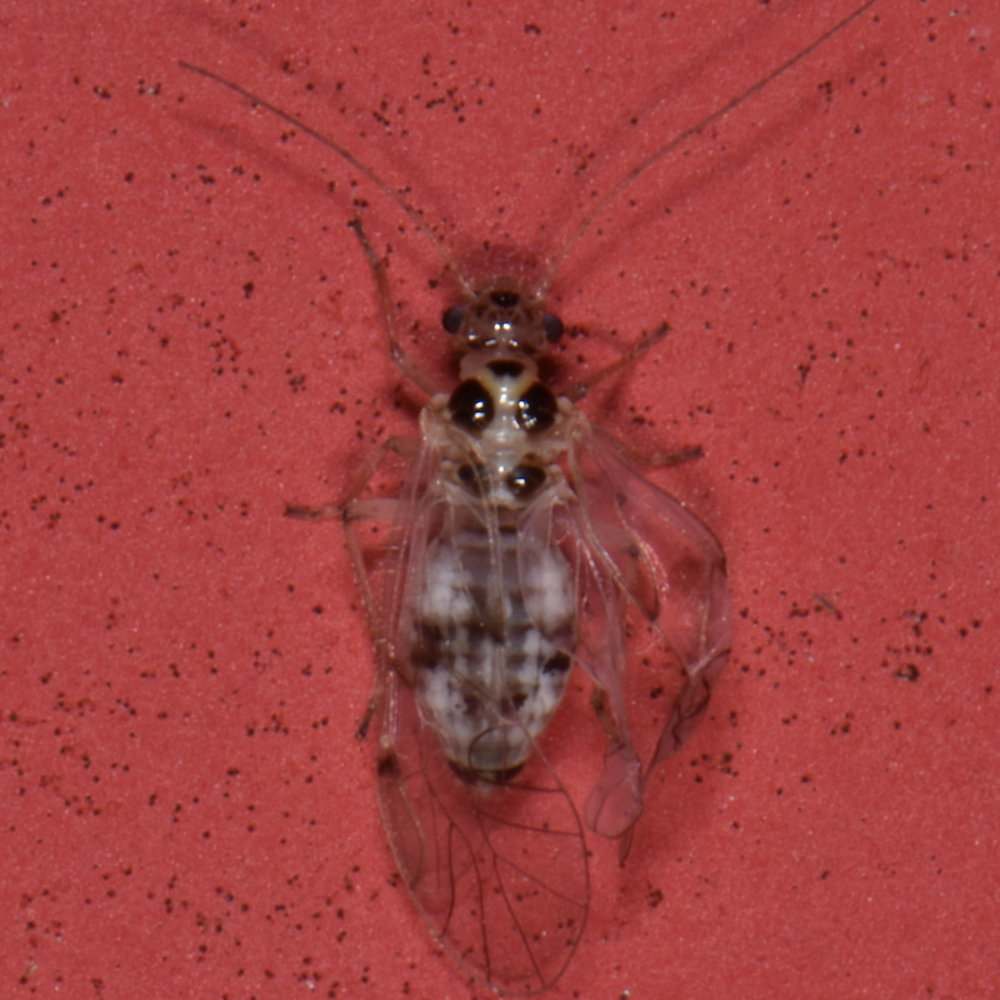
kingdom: Animalia
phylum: Arthropoda
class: Insecta
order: Psocodea
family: Dasydemellidae
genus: Teliapsocus
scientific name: Teliapsocus conterminus
